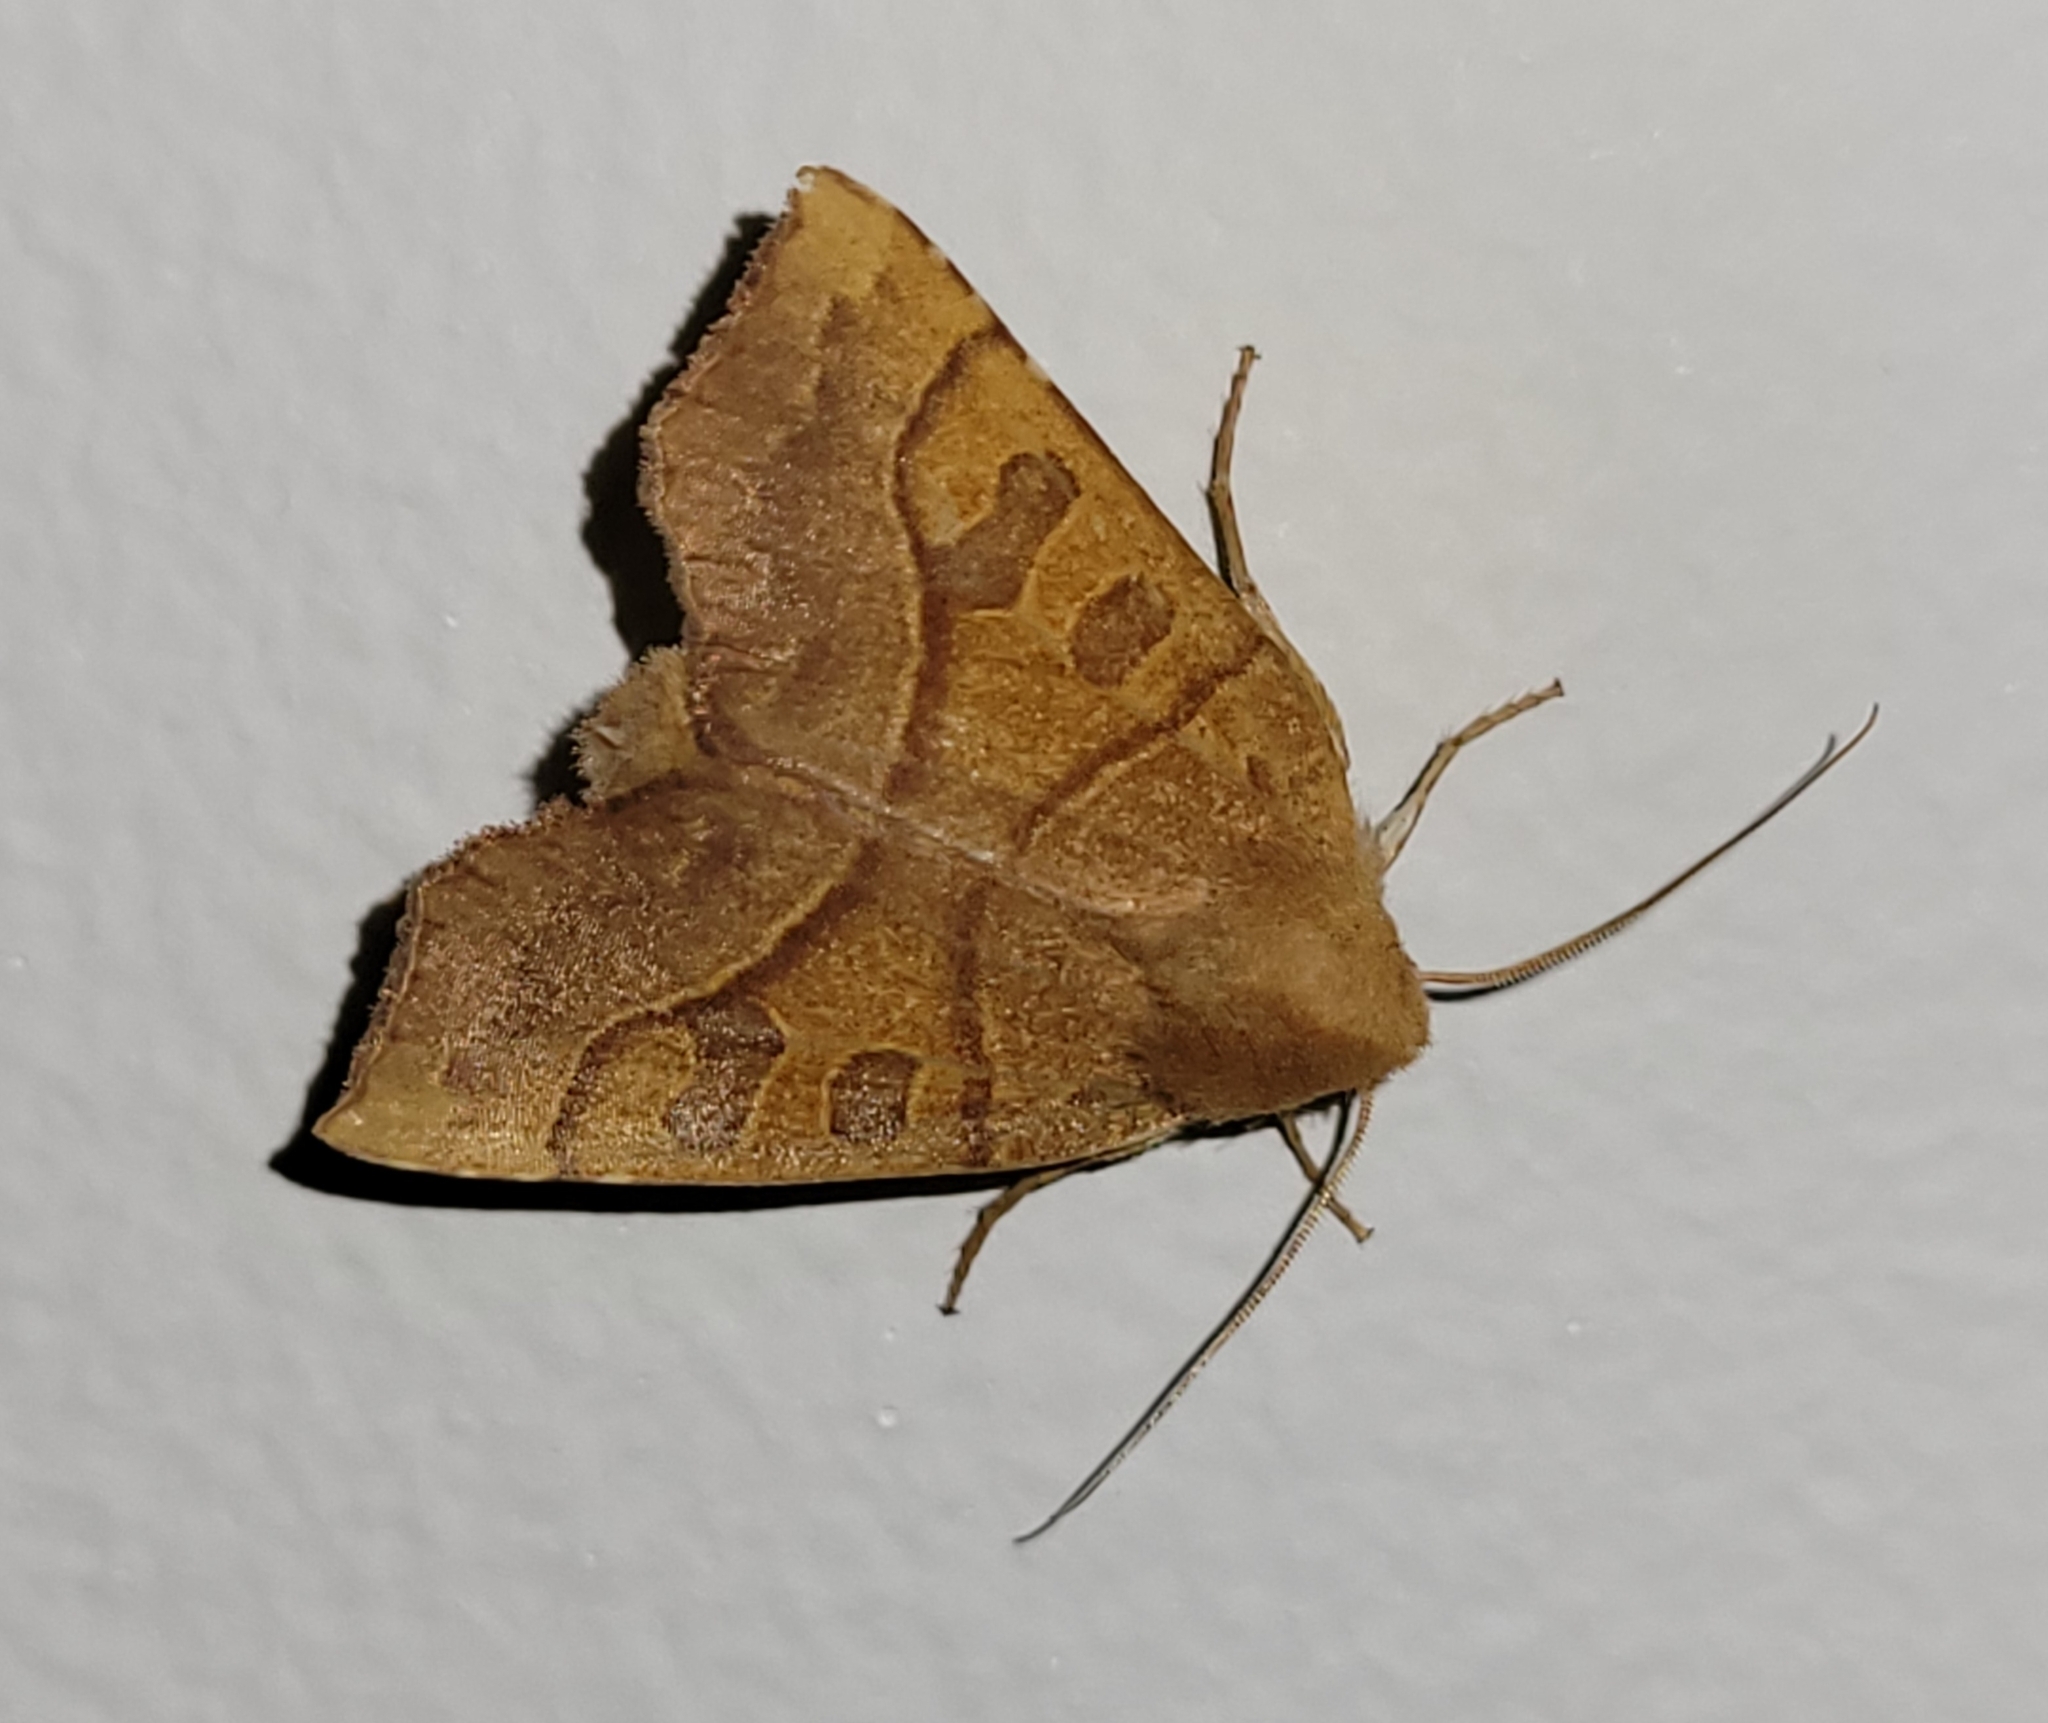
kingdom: Animalia
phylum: Arthropoda
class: Insecta
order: Lepidoptera
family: Noctuidae
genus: Eucirroedia
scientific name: Eucirroedia pampina
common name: Scalloped sallow
